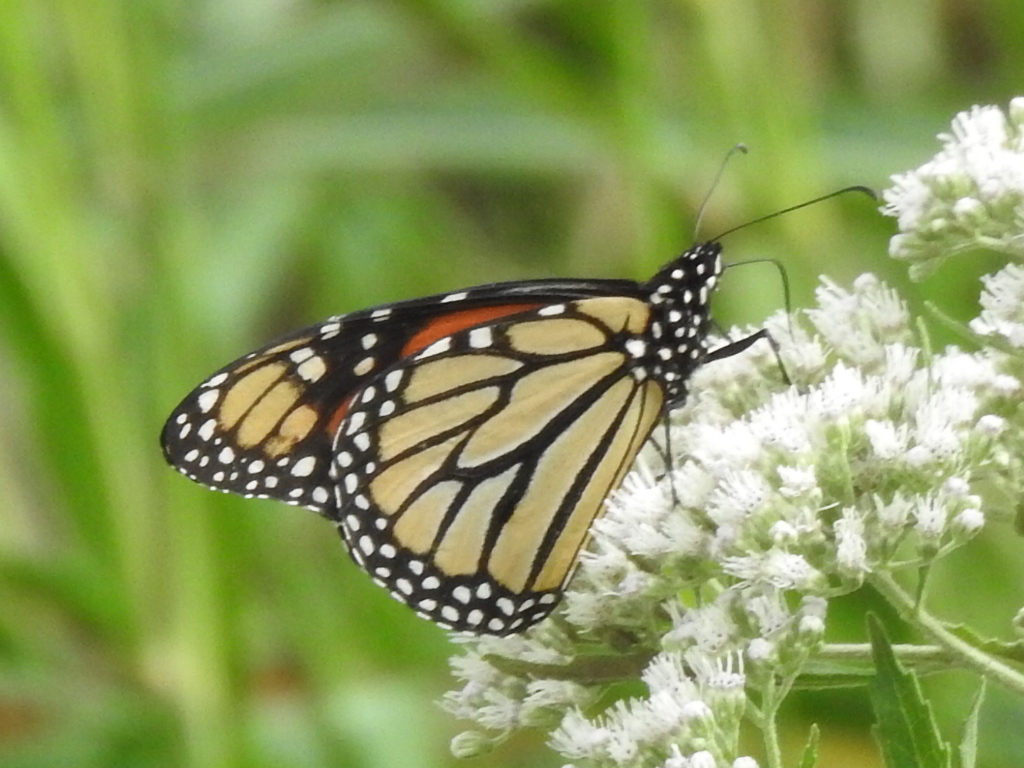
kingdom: Animalia
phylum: Arthropoda
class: Insecta
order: Lepidoptera
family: Nymphalidae
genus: Danaus
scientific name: Danaus plexippus
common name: Monarch
